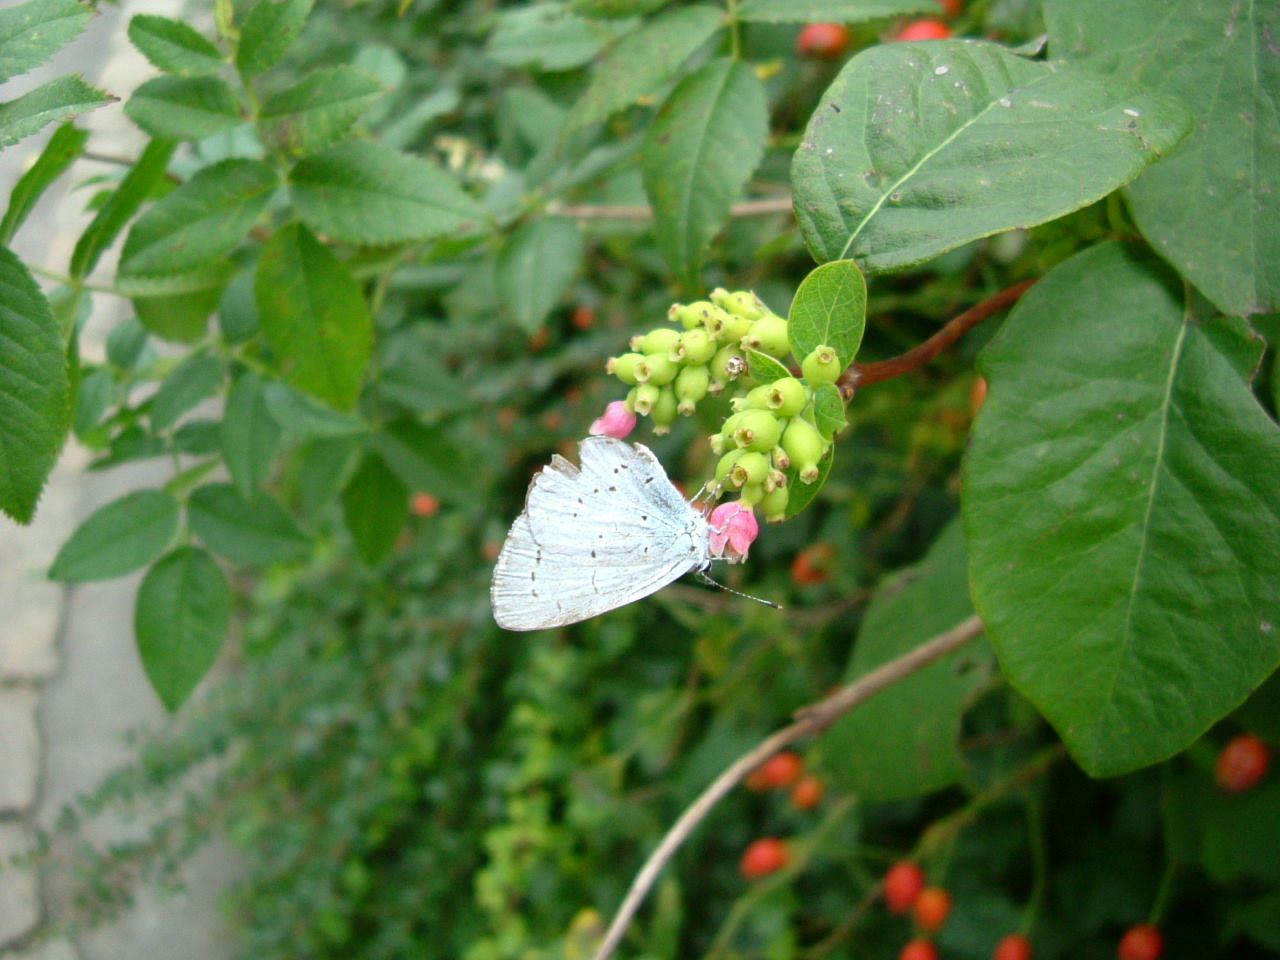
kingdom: Animalia
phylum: Arthropoda
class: Insecta
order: Lepidoptera
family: Lycaenidae
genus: Celastrina
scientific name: Celastrina argiolus
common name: Holly blue
